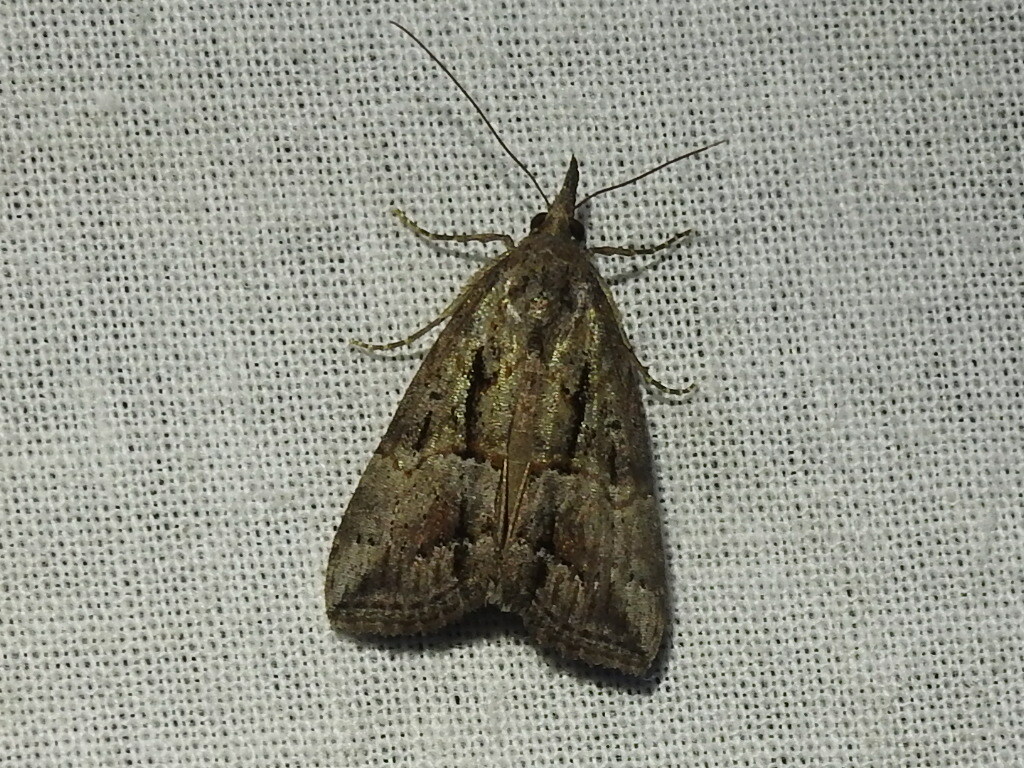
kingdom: Animalia
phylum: Arthropoda
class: Insecta
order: Lepidoptera
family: Erebidae
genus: Hypena
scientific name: Hypena scabra
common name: Green cloverworm
